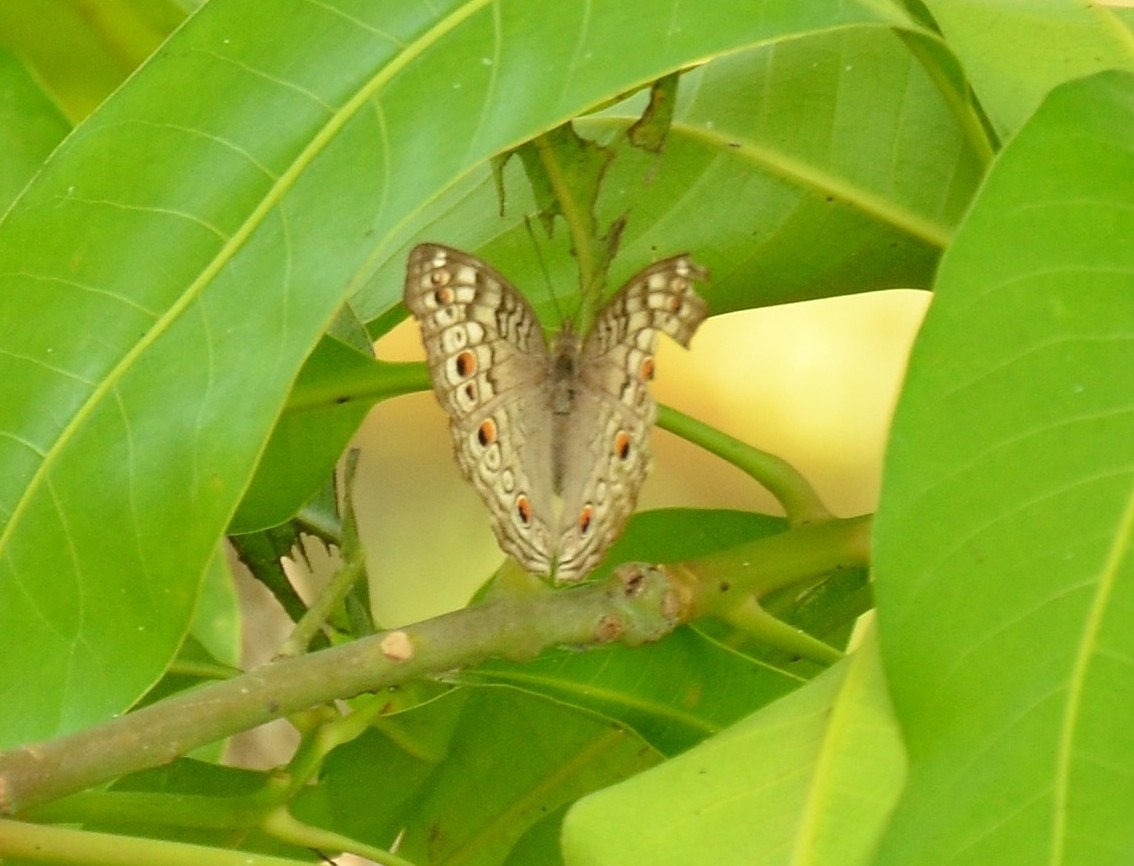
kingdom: Animalia
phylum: Arthropoda
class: Insecta
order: Lepidoptera
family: Nymphalidae
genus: Junonia
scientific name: Junonia atlites
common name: Grey pansy
